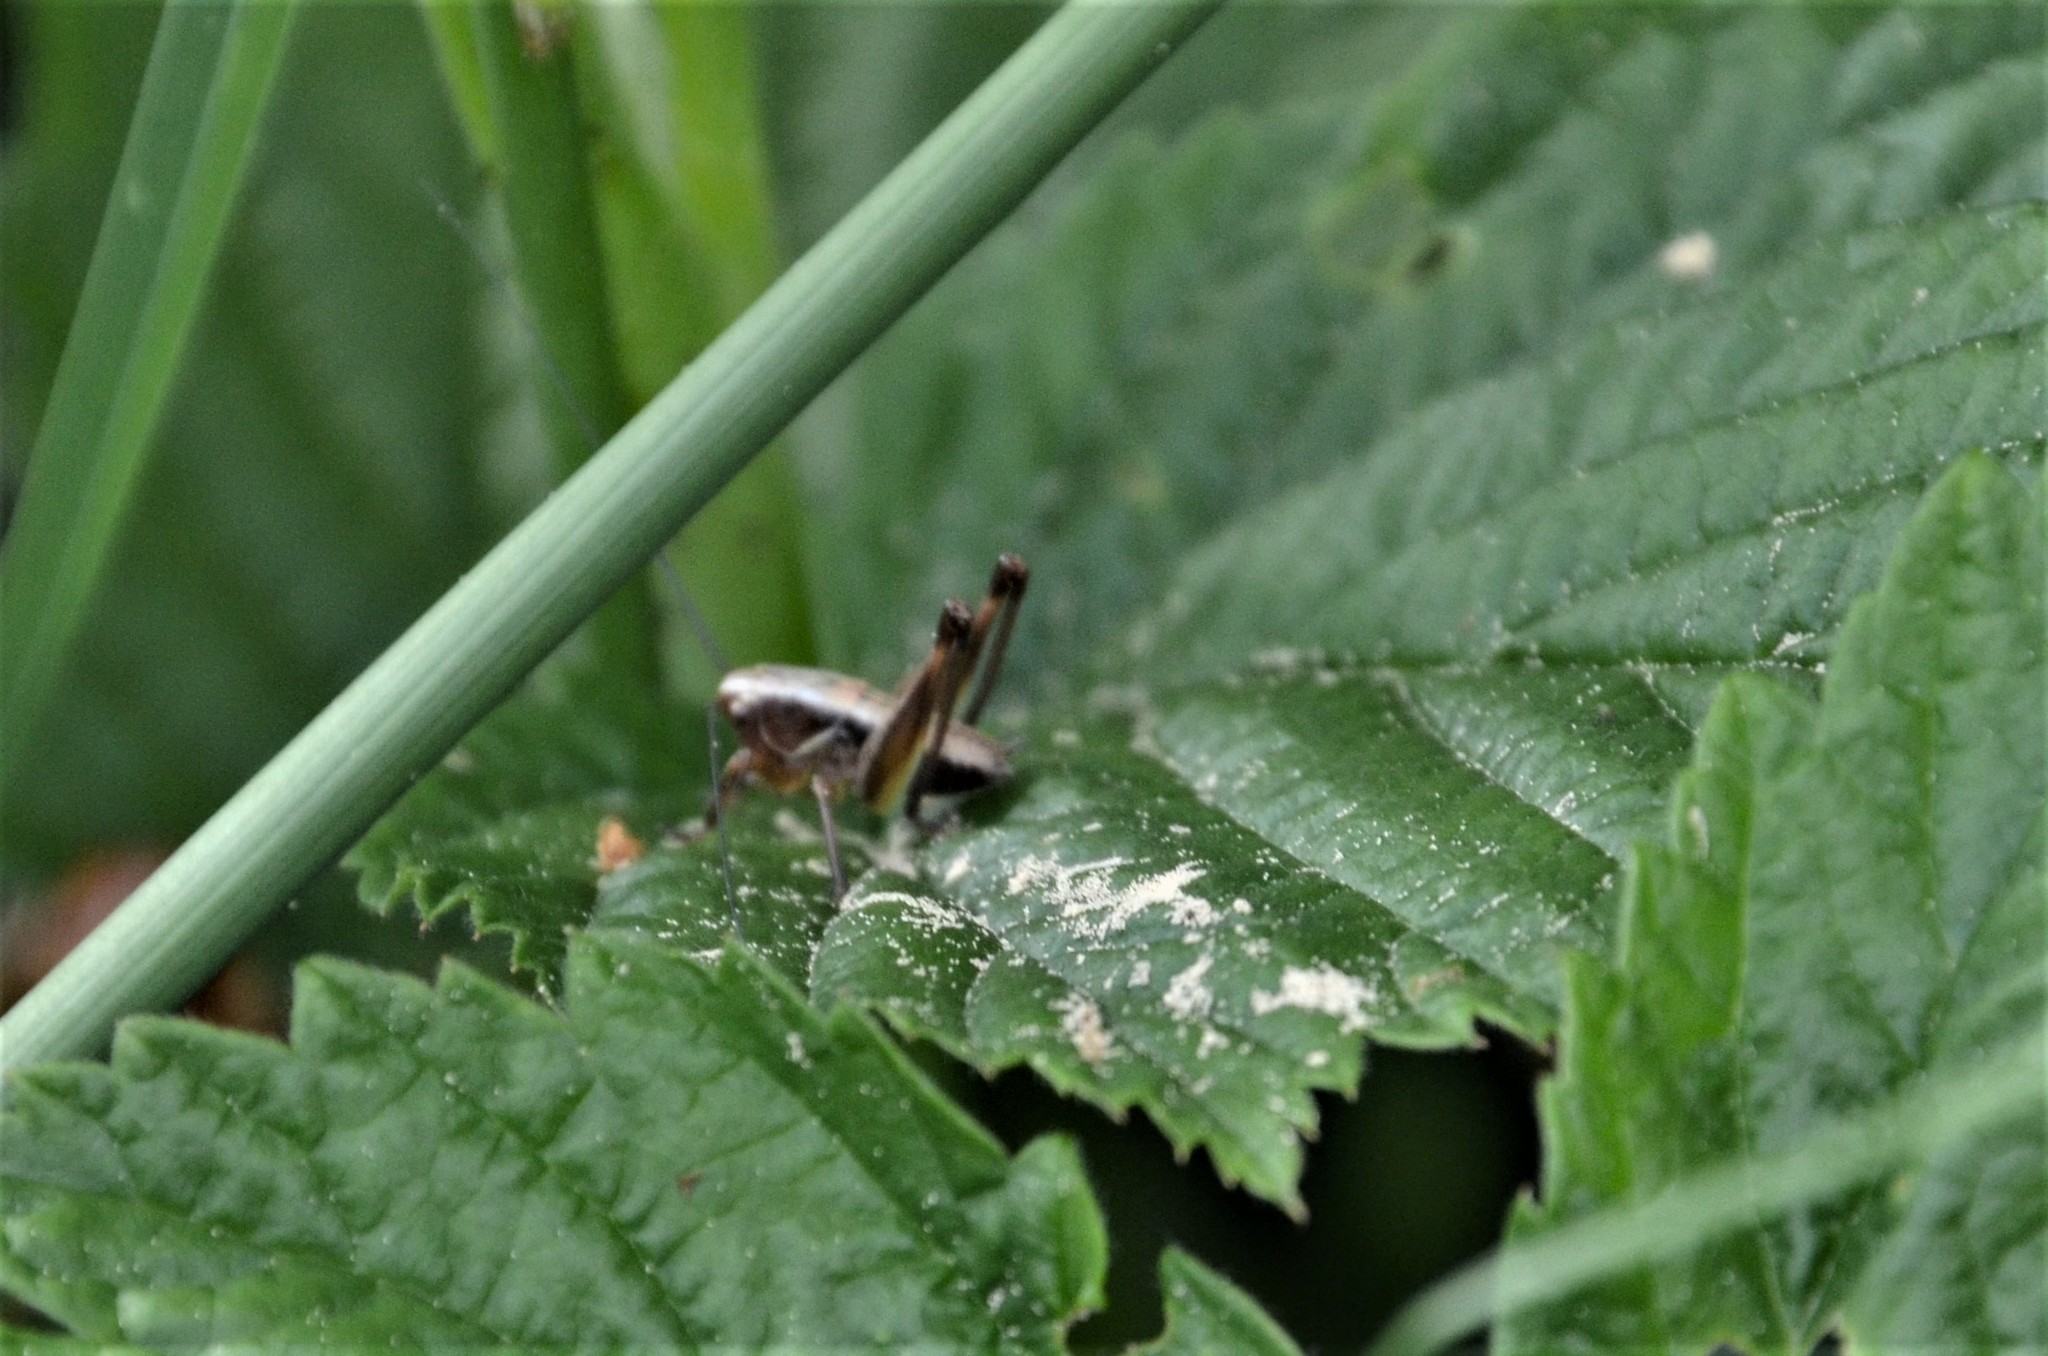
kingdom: Animalia
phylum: Arthropoda
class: Insecta
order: Orthoptera
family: Tettigoniidae
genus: Pholidoptera
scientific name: Pholidoptera griseoaptera
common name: Dark bush-cricket
